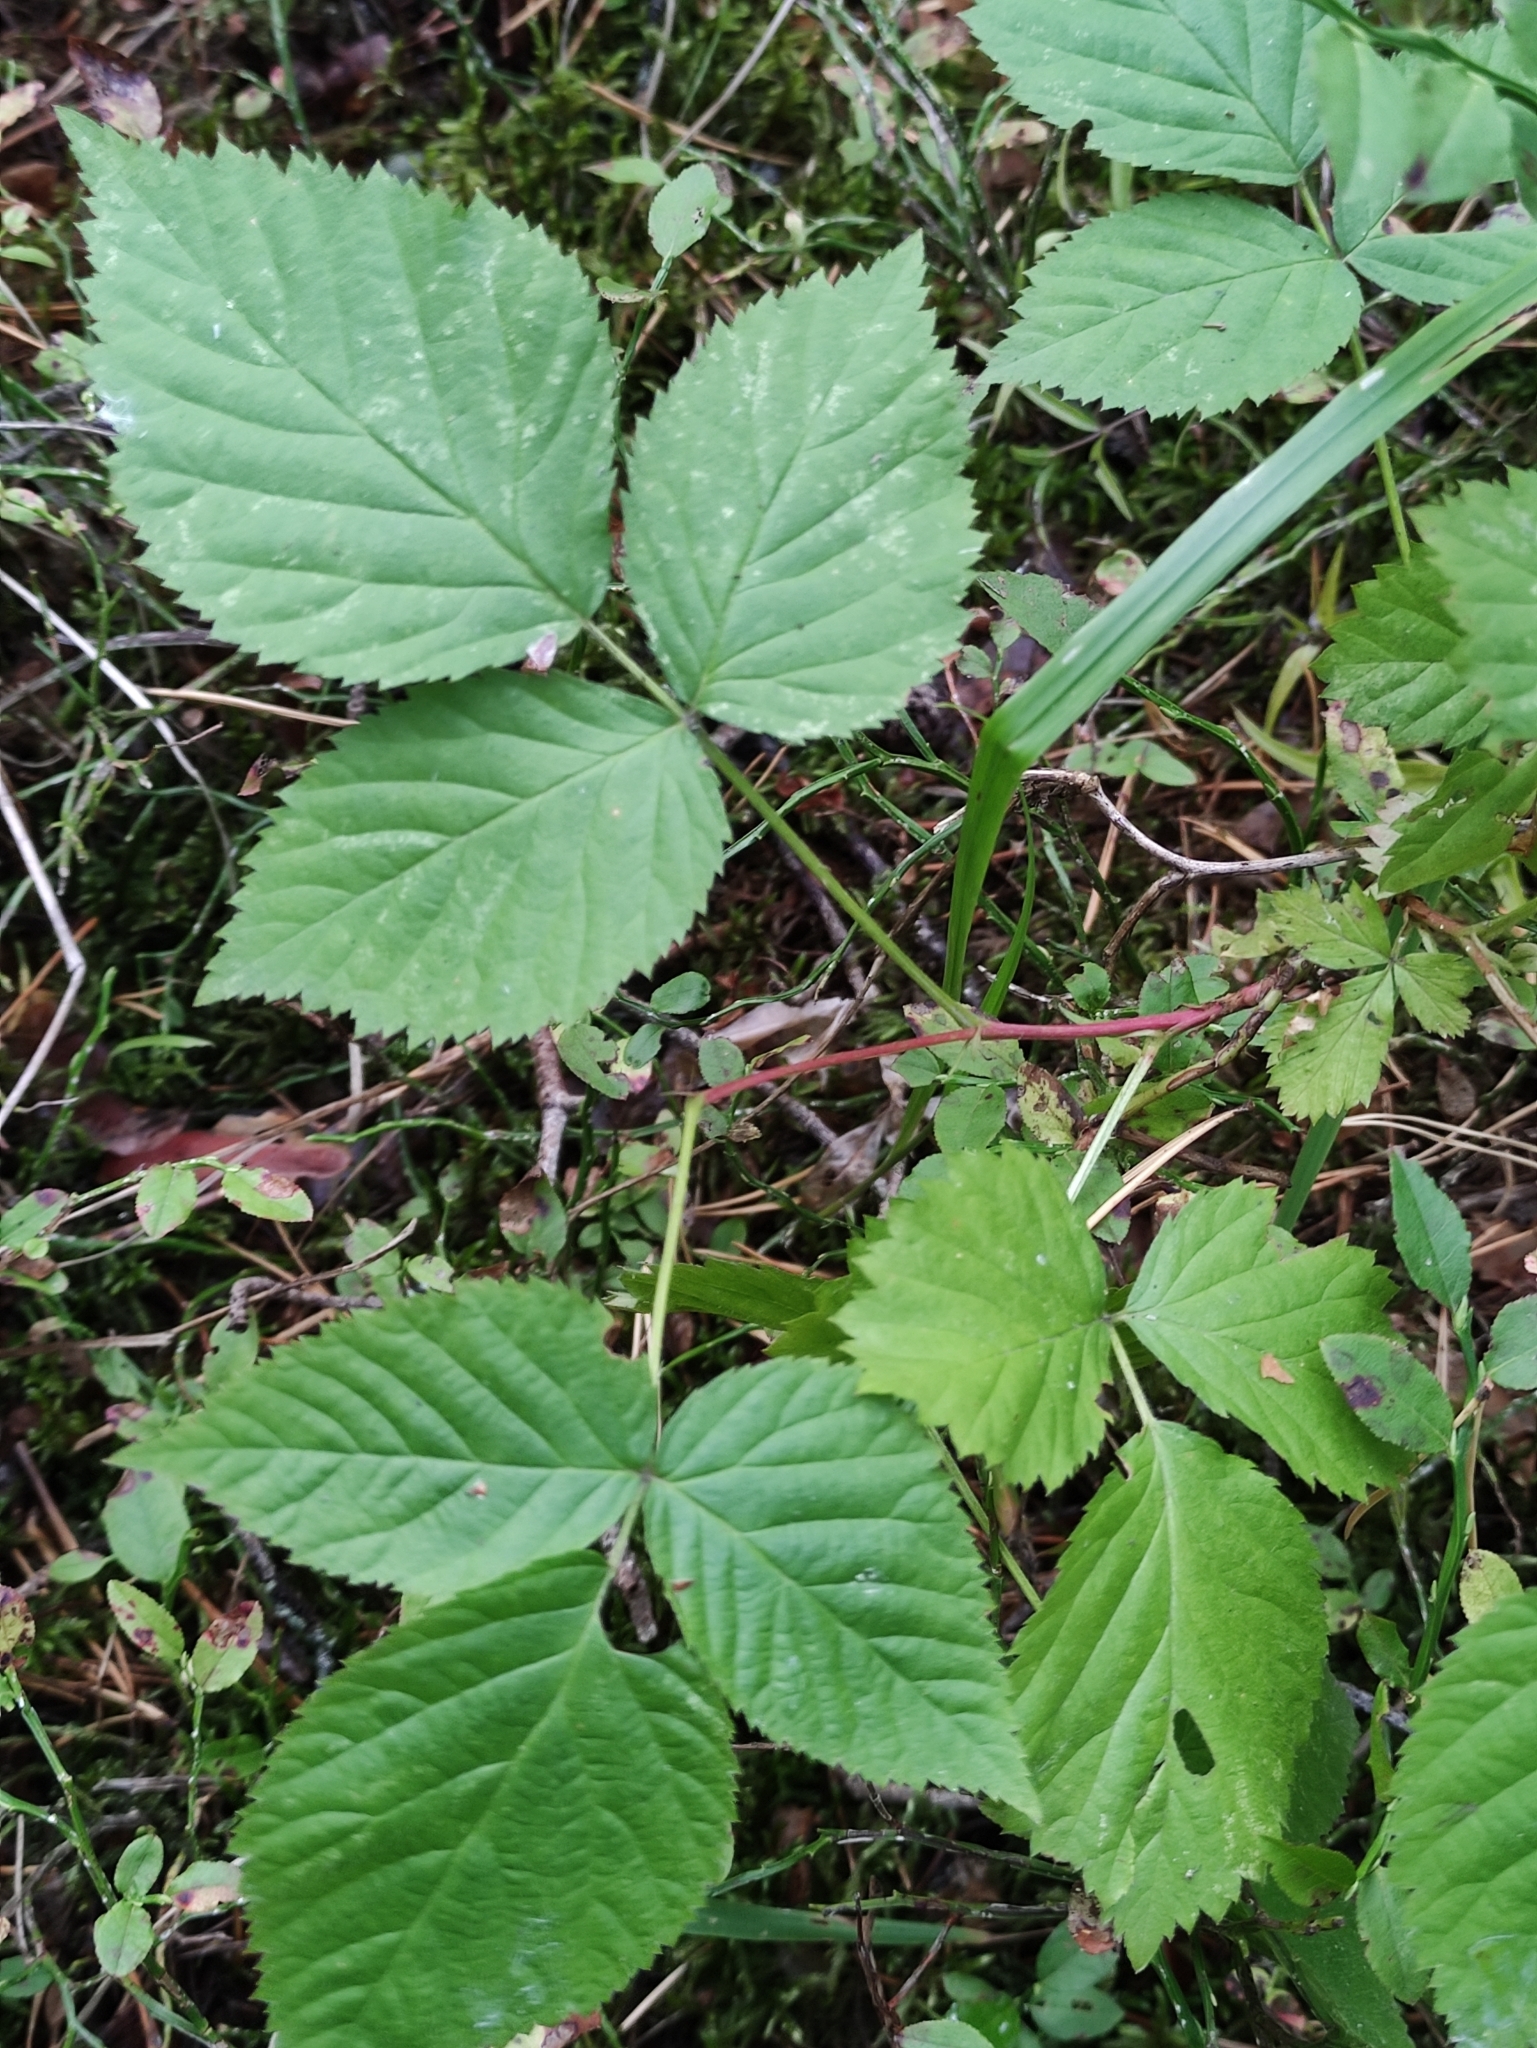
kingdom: Plantae
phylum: Tracheophyta
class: Magnoliopsida
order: Rosales
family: Rosaceae
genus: Rubus
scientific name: Rubus polonicus
